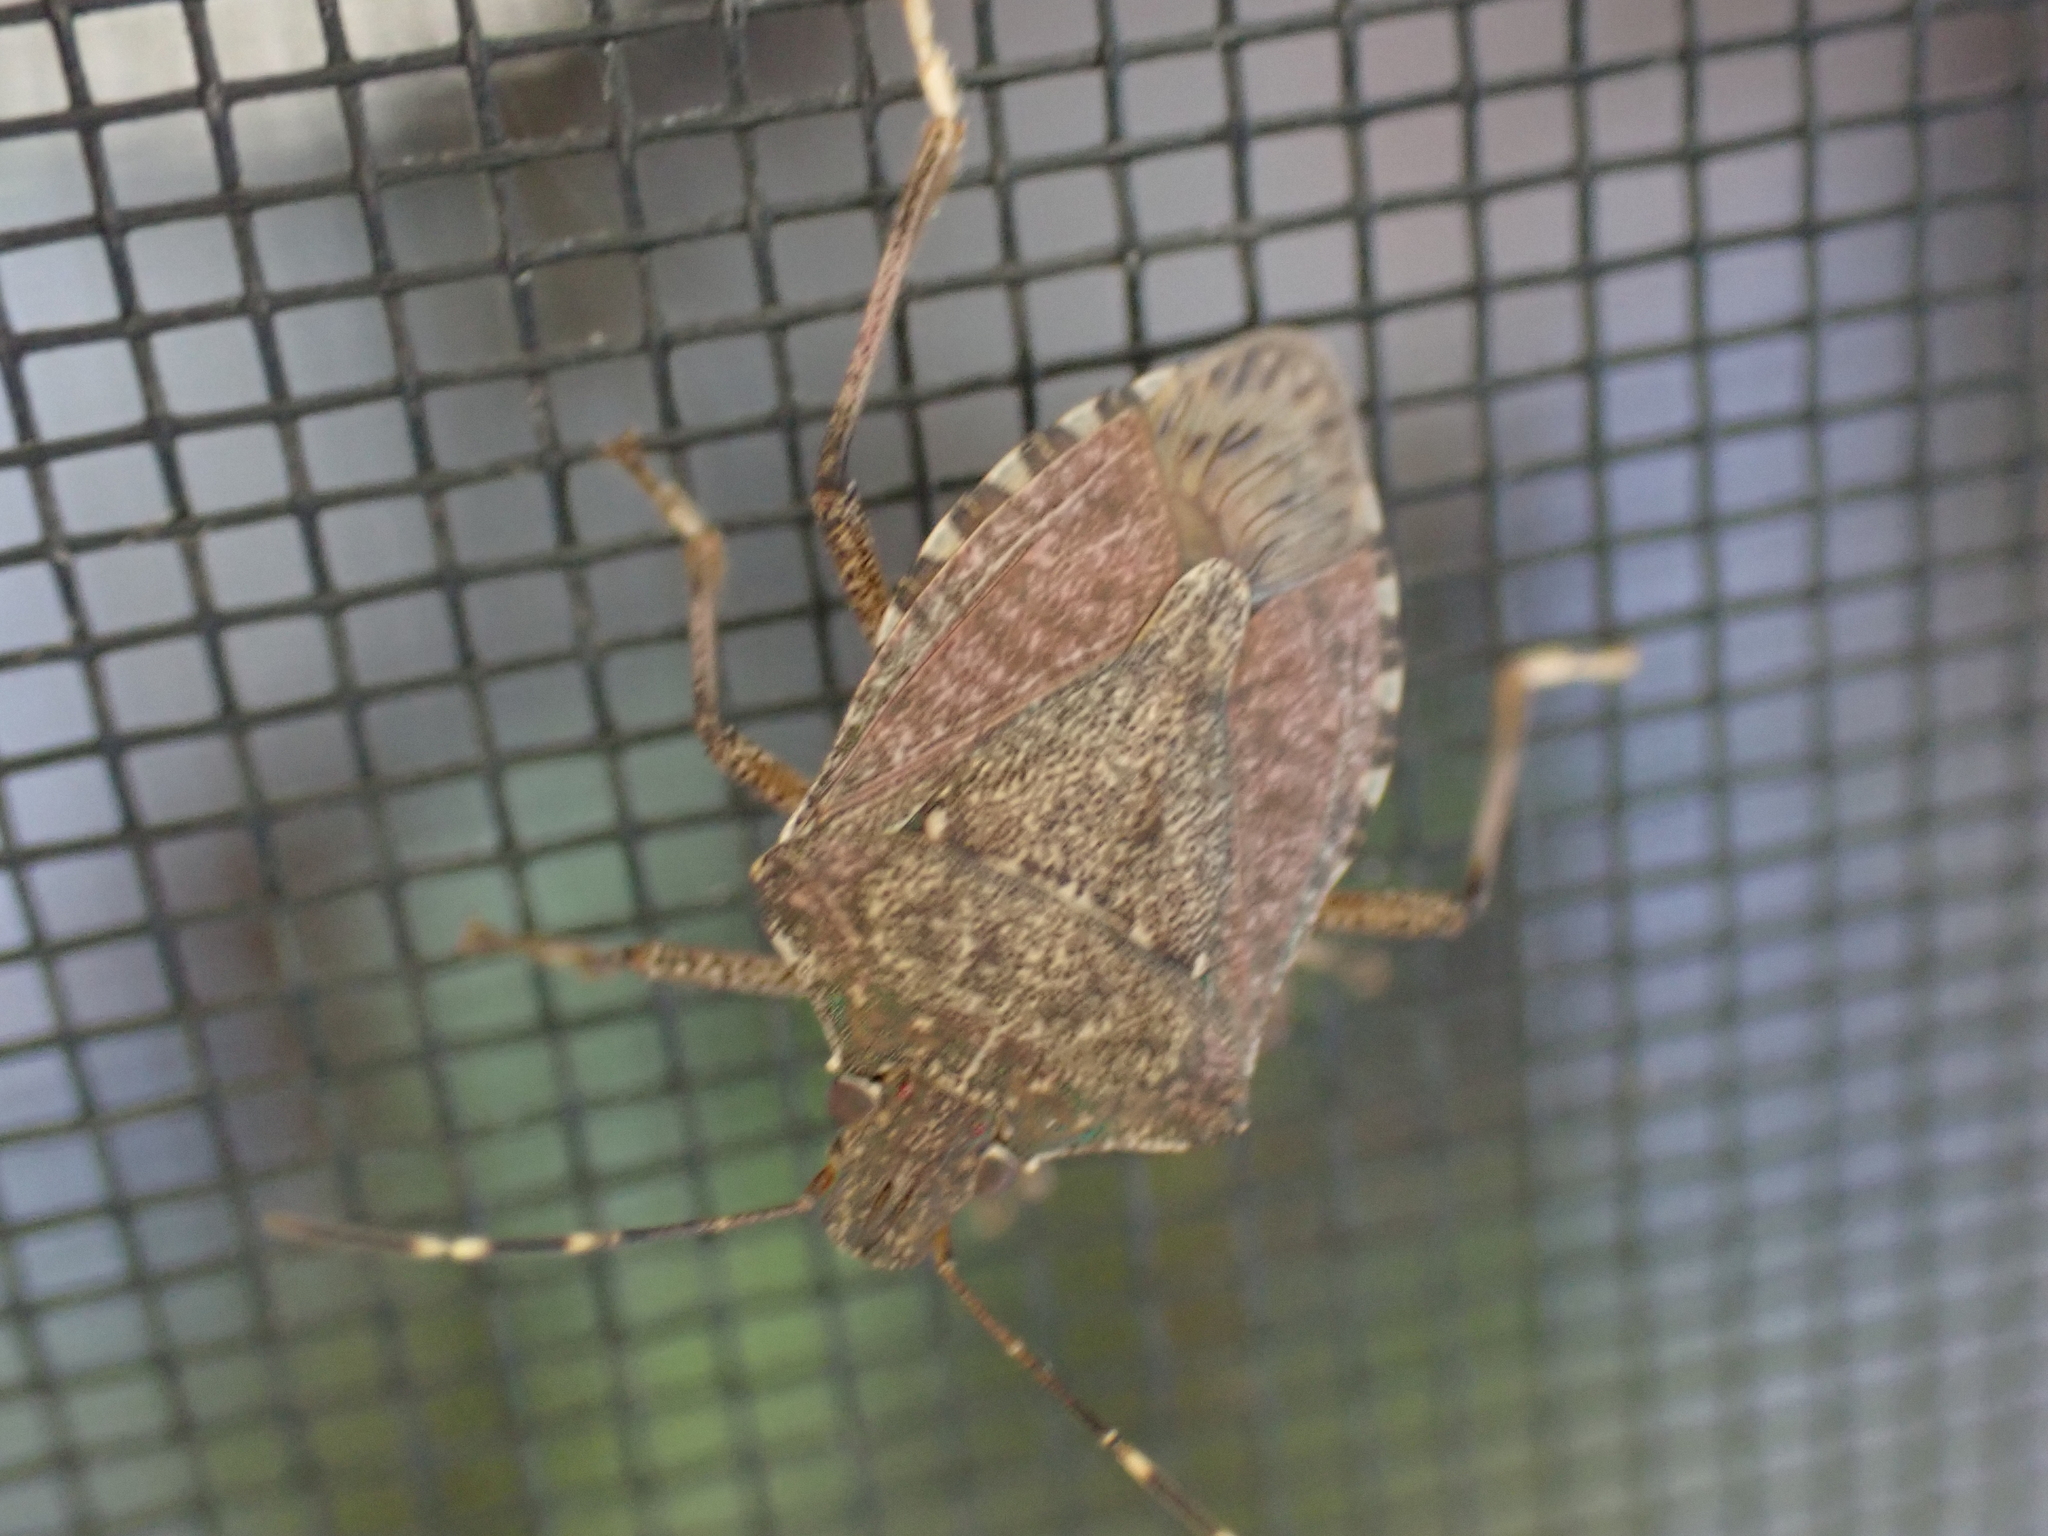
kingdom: Animalia
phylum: Arthropoda
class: Insecta
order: Hemiptera
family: Pentatomidae
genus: Halyomorpha
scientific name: Halyomorpha halys
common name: Brown marmorated stink bug
